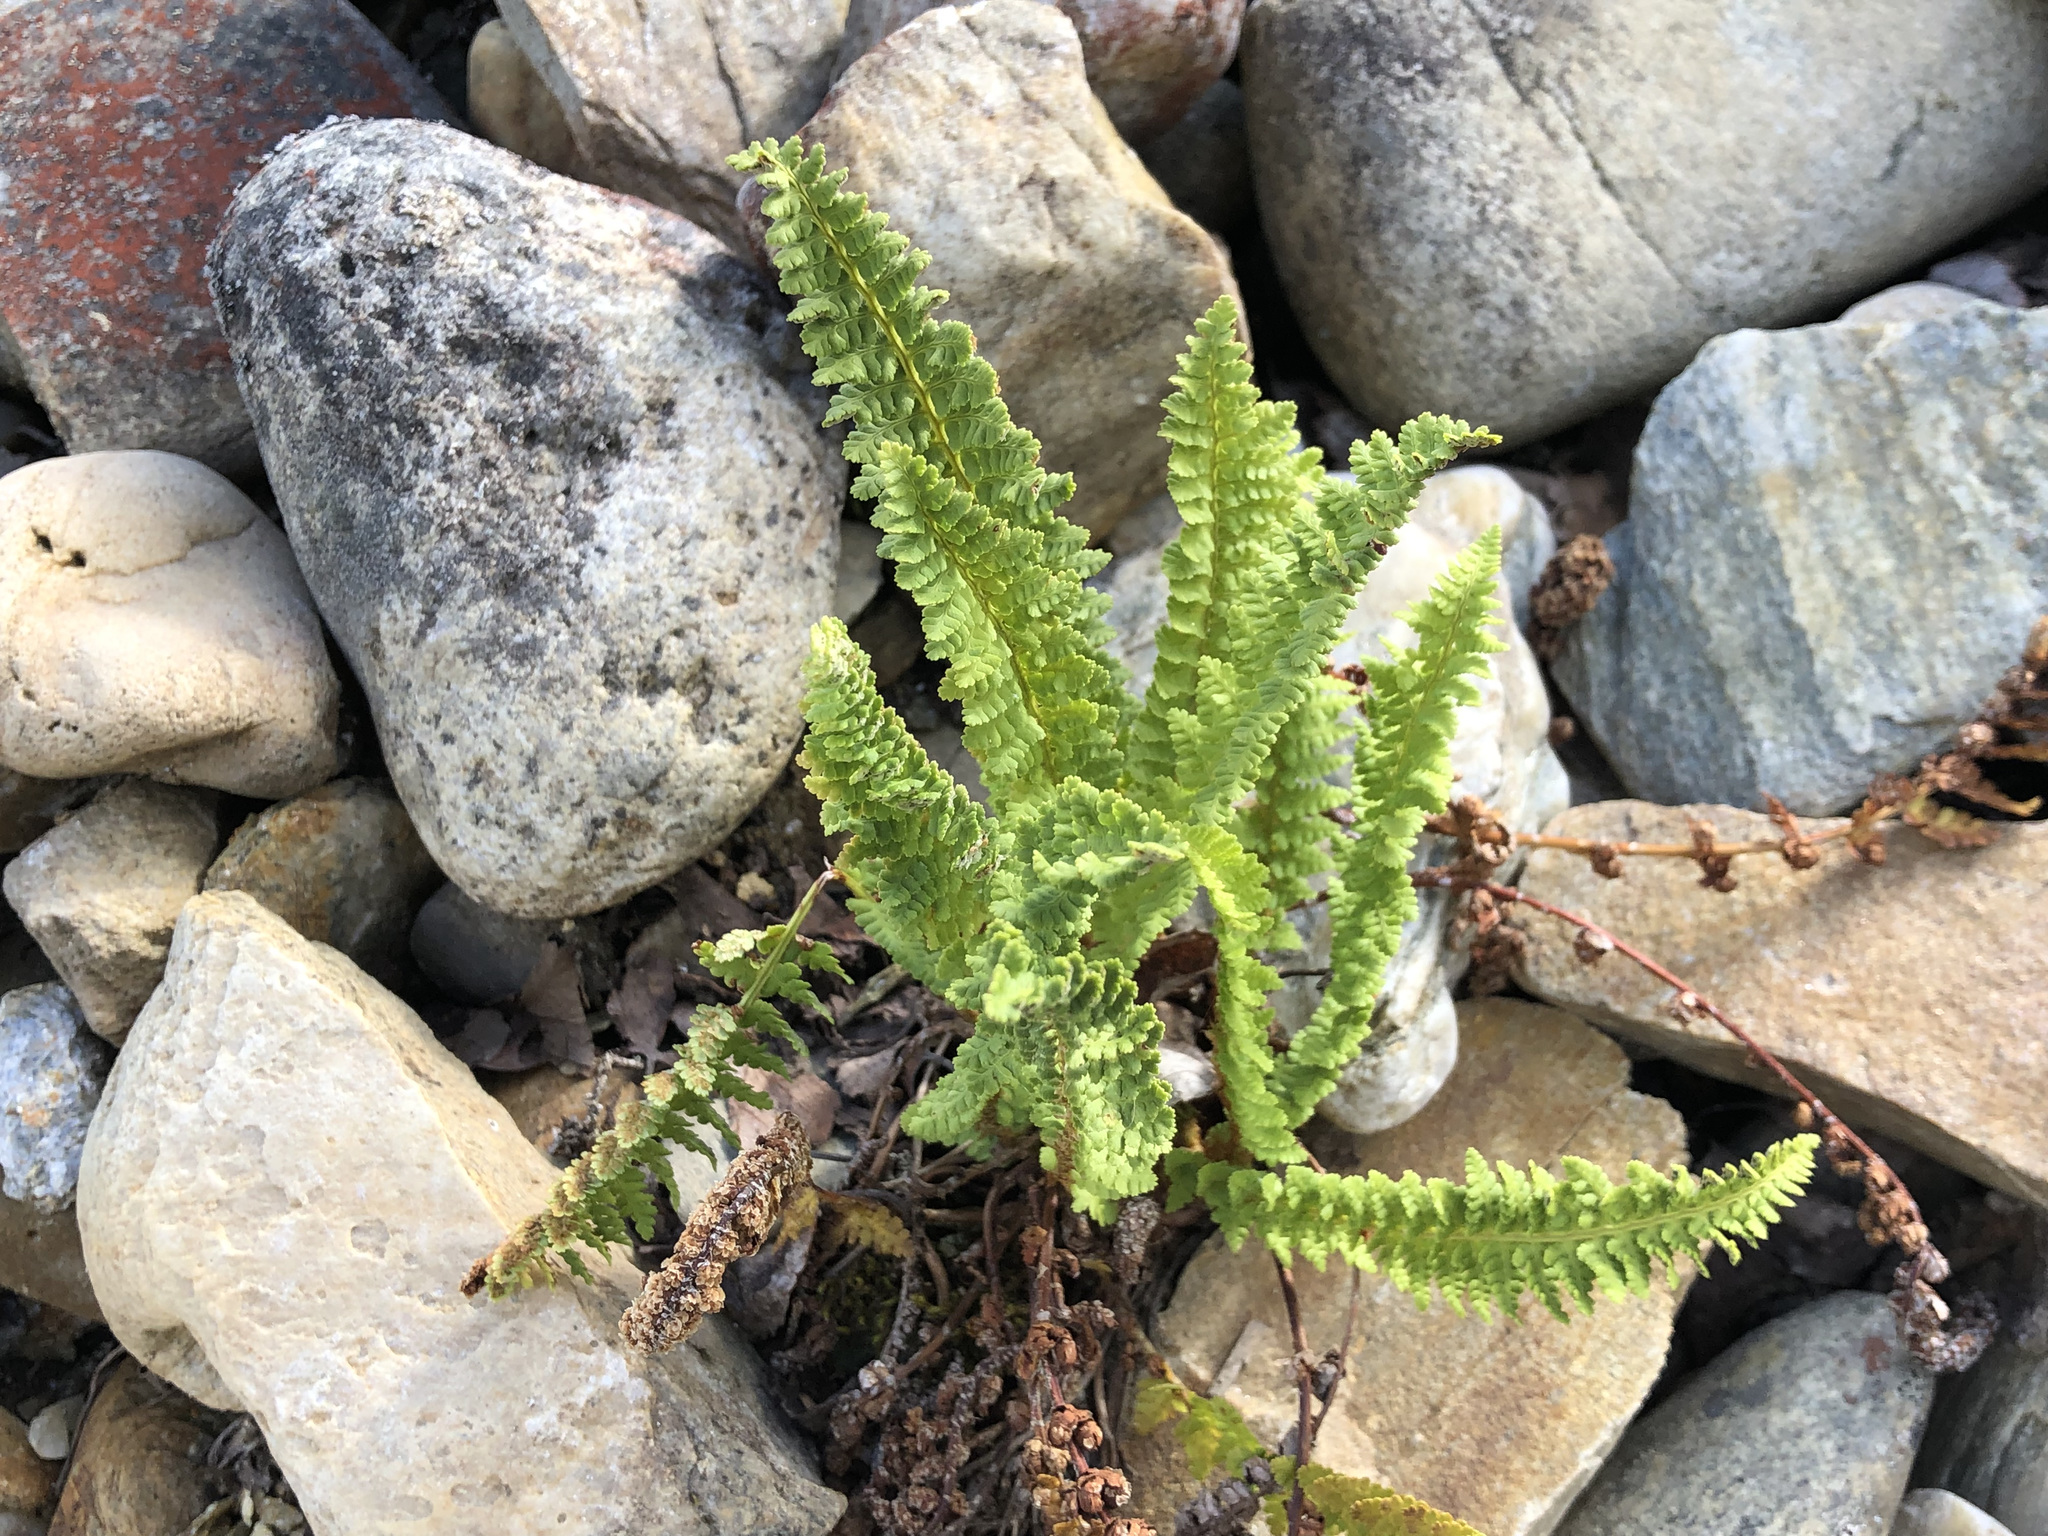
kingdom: Plantae
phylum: Tracheophyta
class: Polypodiopsida
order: Polypodiales
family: Dryopteridaceae
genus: Dryopteris
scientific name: Dryopteris fragrans
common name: Fragrant wood fern
